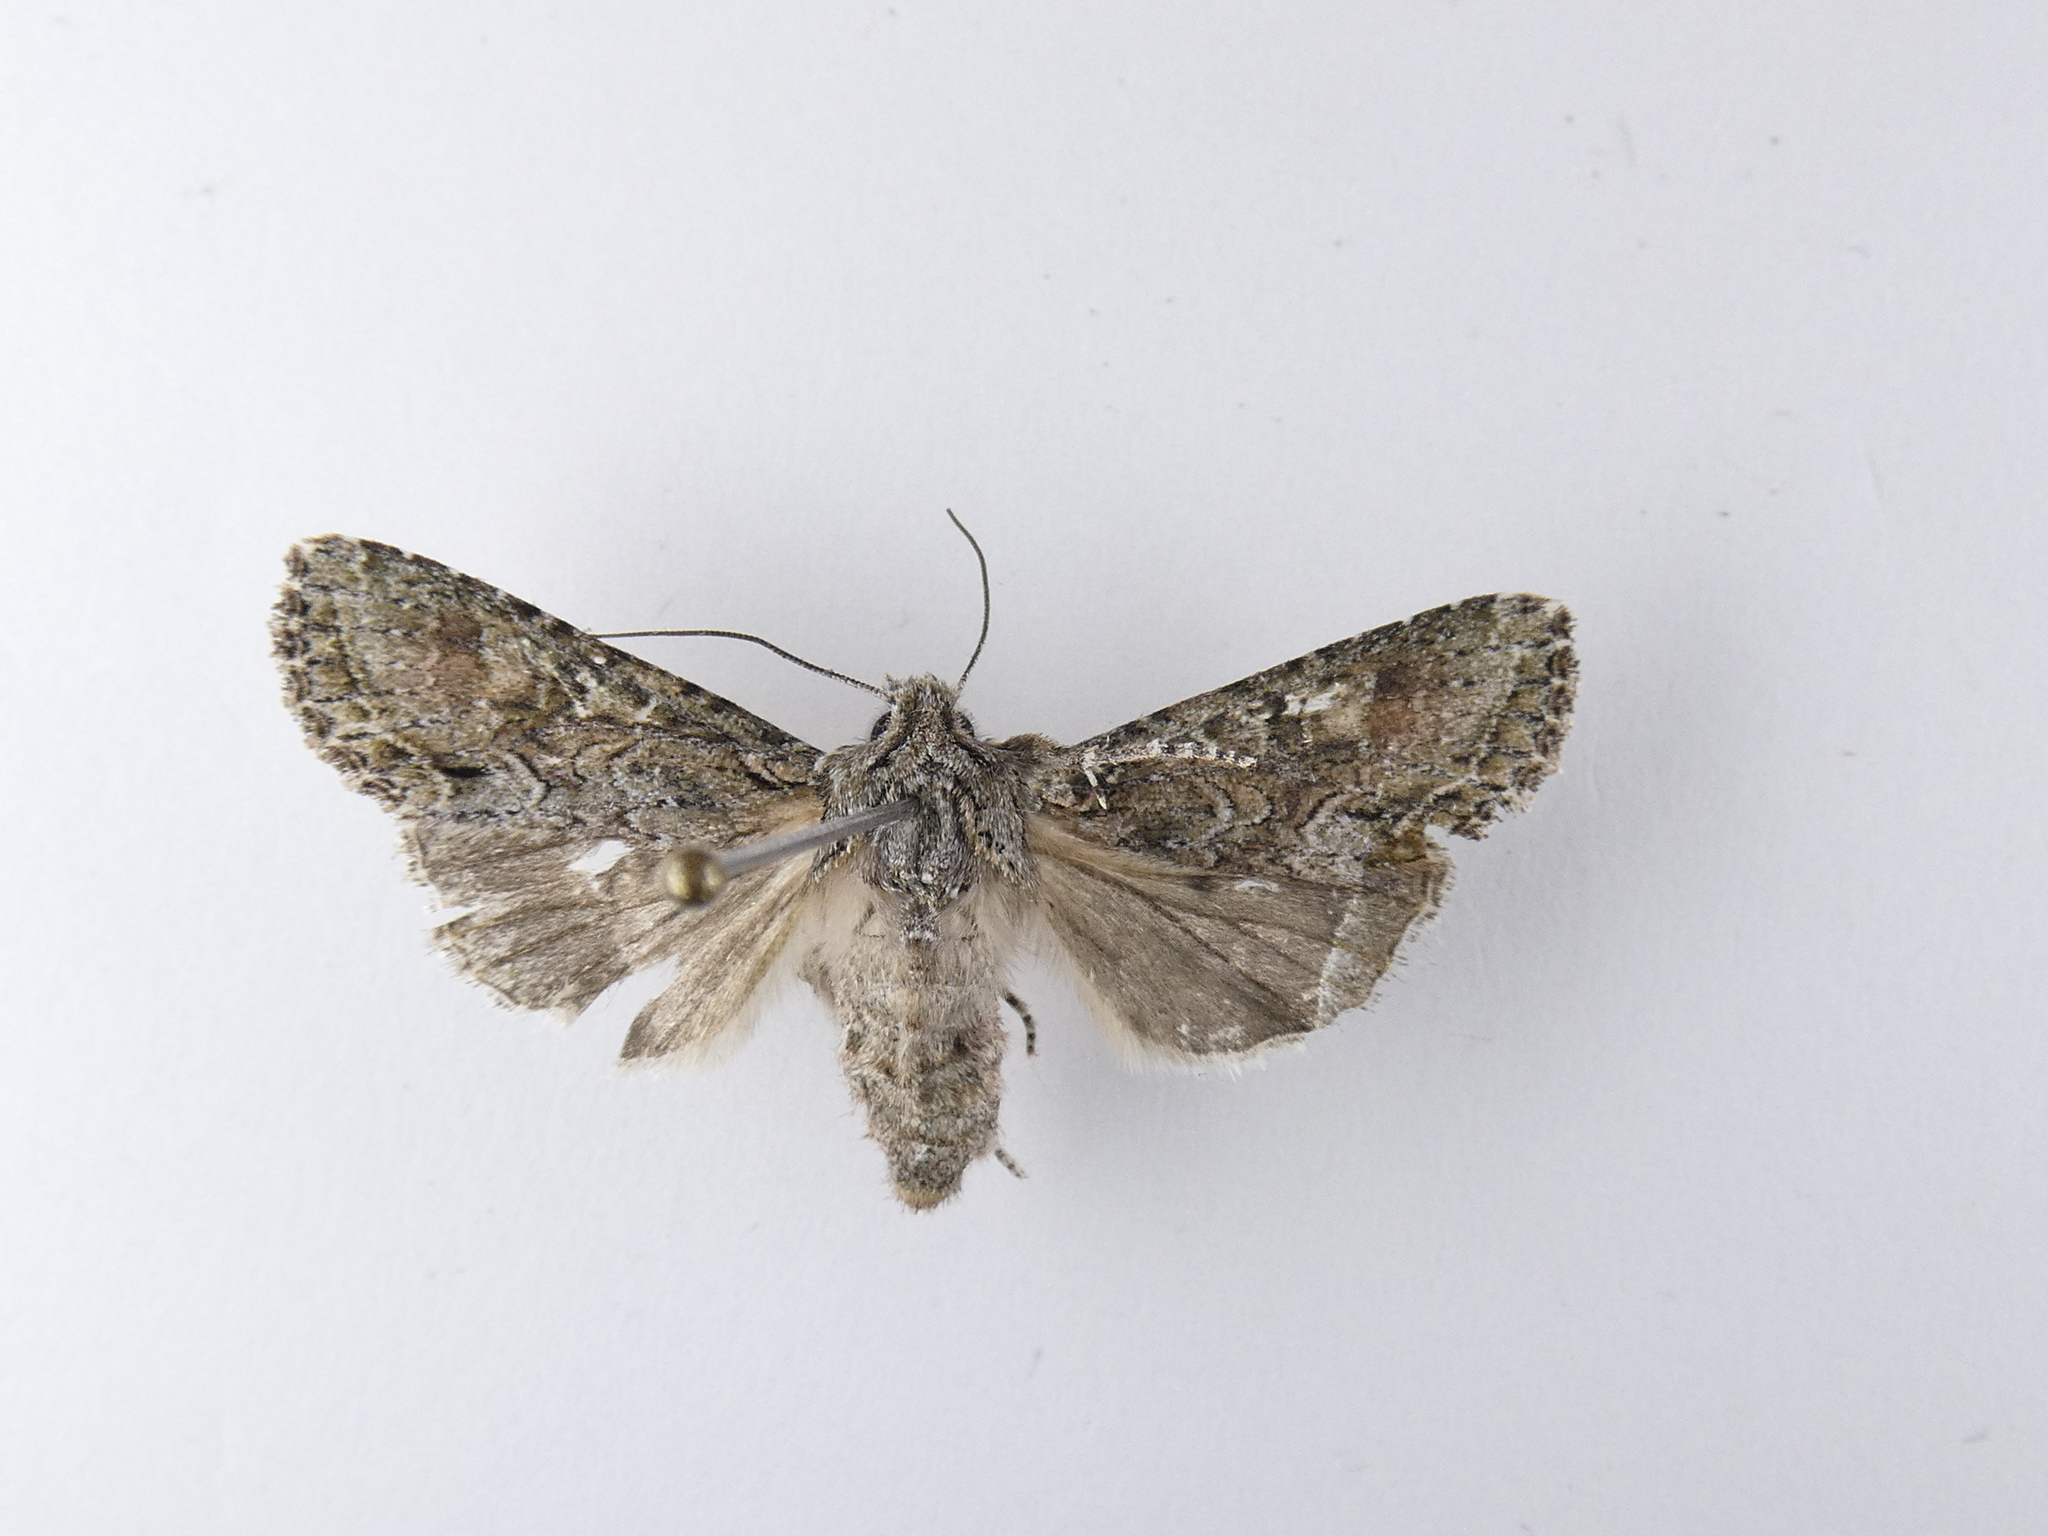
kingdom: Animalia
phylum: Arthropoda
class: Insecta
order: Lepidoptera
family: Noctuidae
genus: Ichneutica
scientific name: Ichneutica mutans
